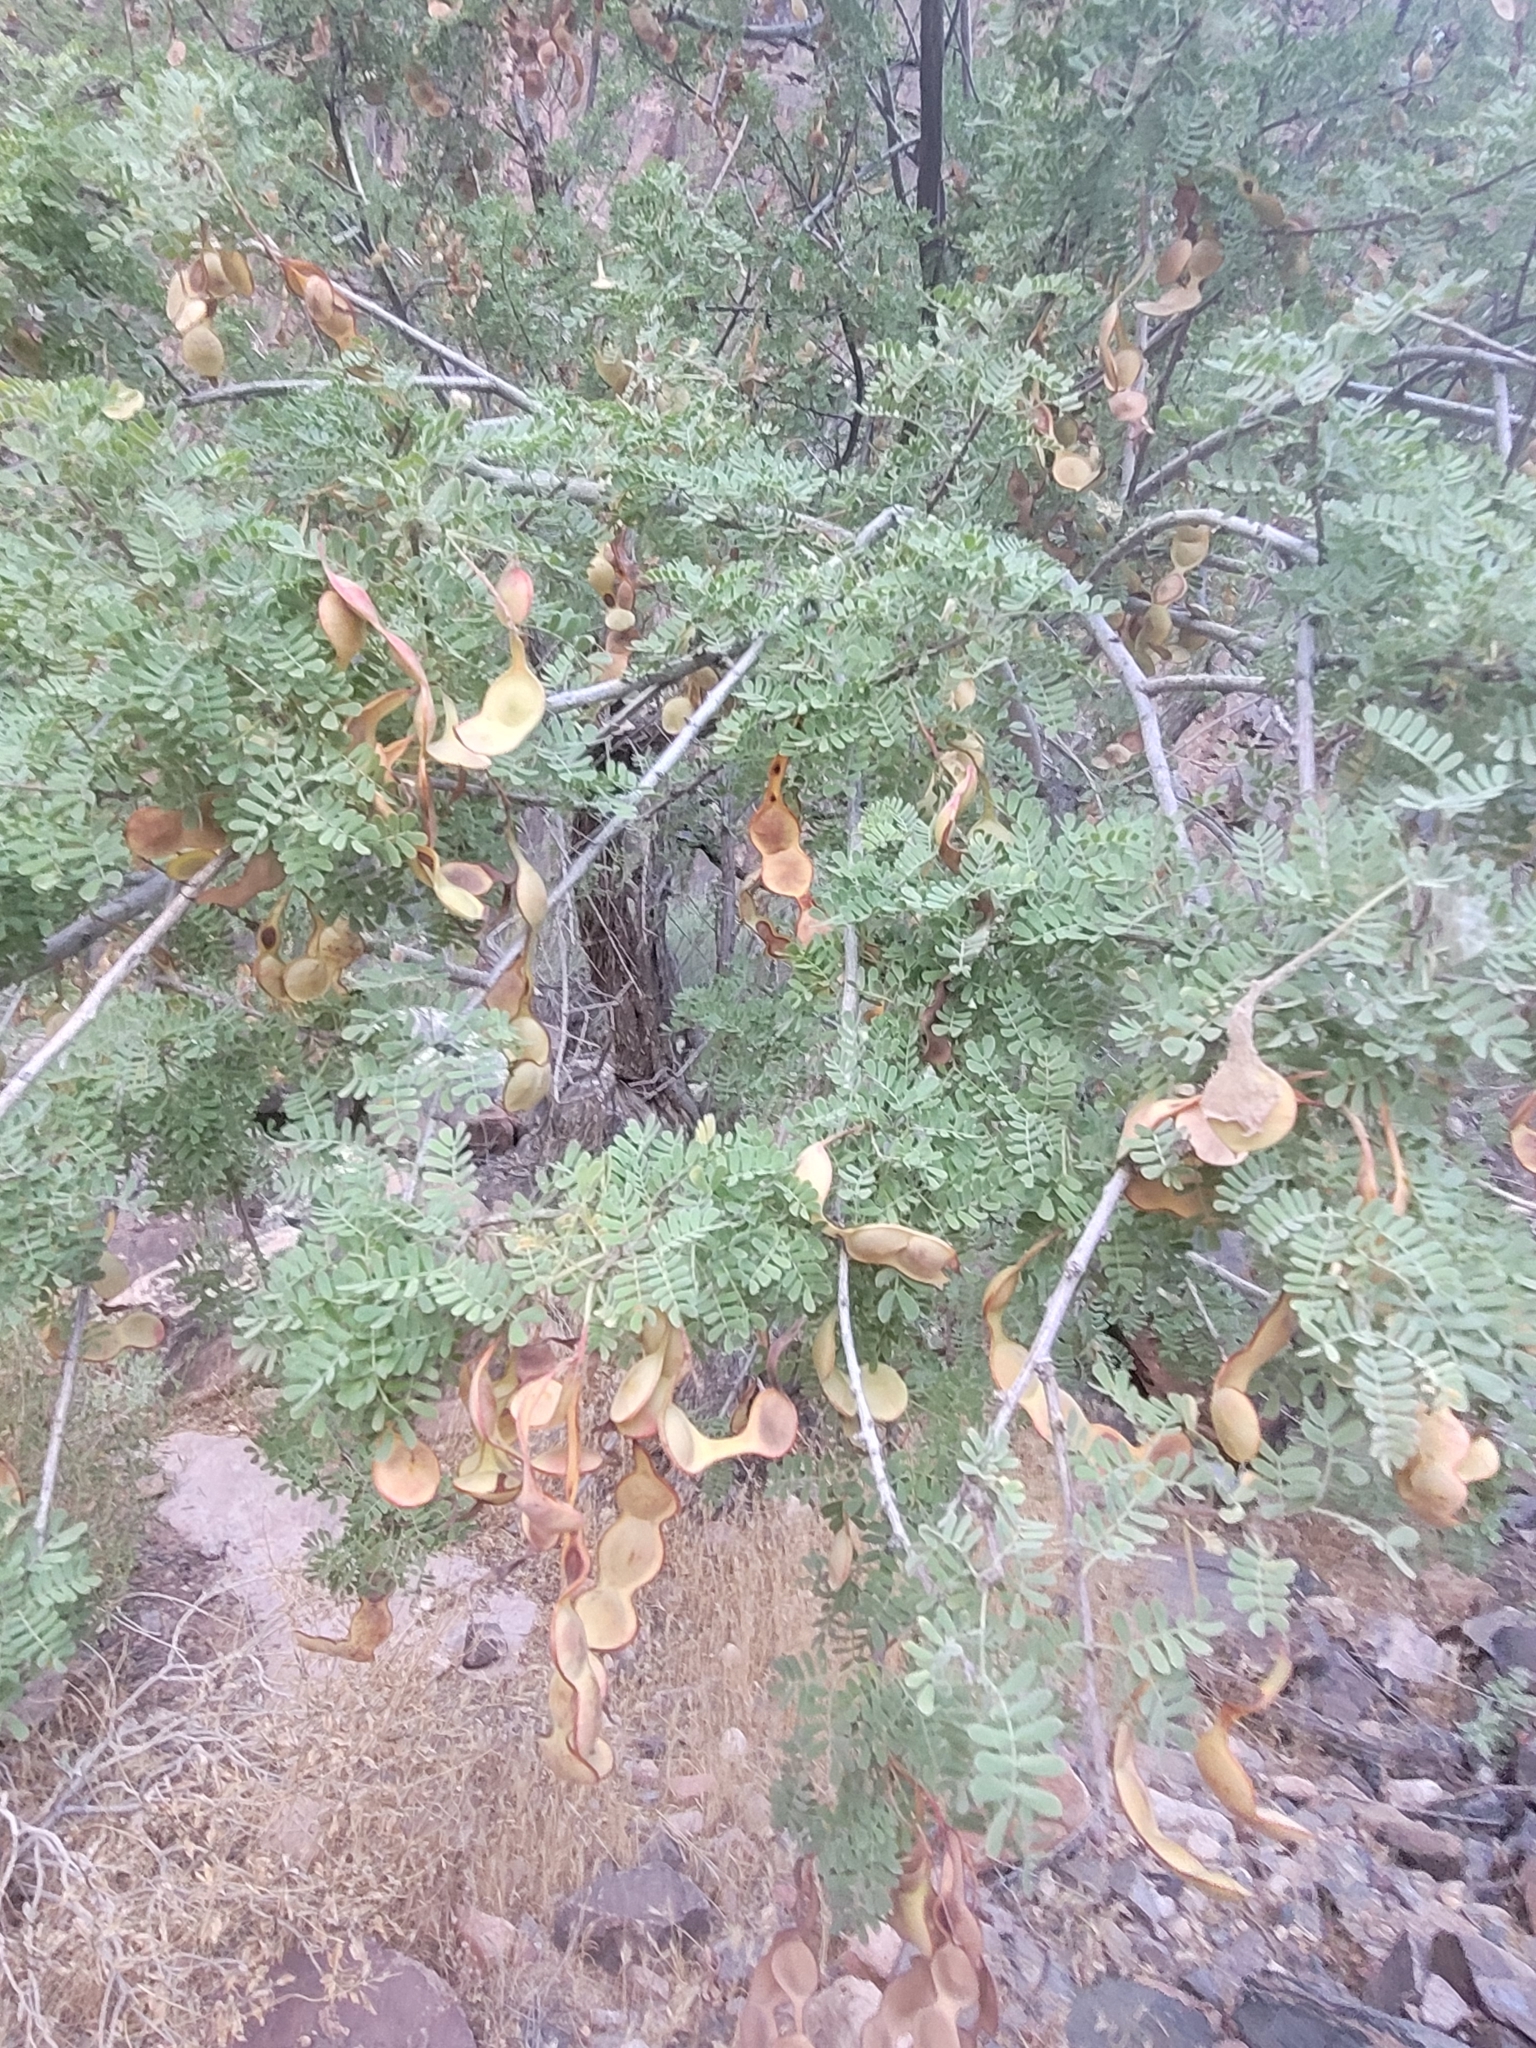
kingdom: Plantae
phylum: Tracheophyta
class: Magnoliopsida
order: Fabales
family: Fabaceae
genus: Senegalia
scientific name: Senegalia greggii
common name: Texas-mimosa
